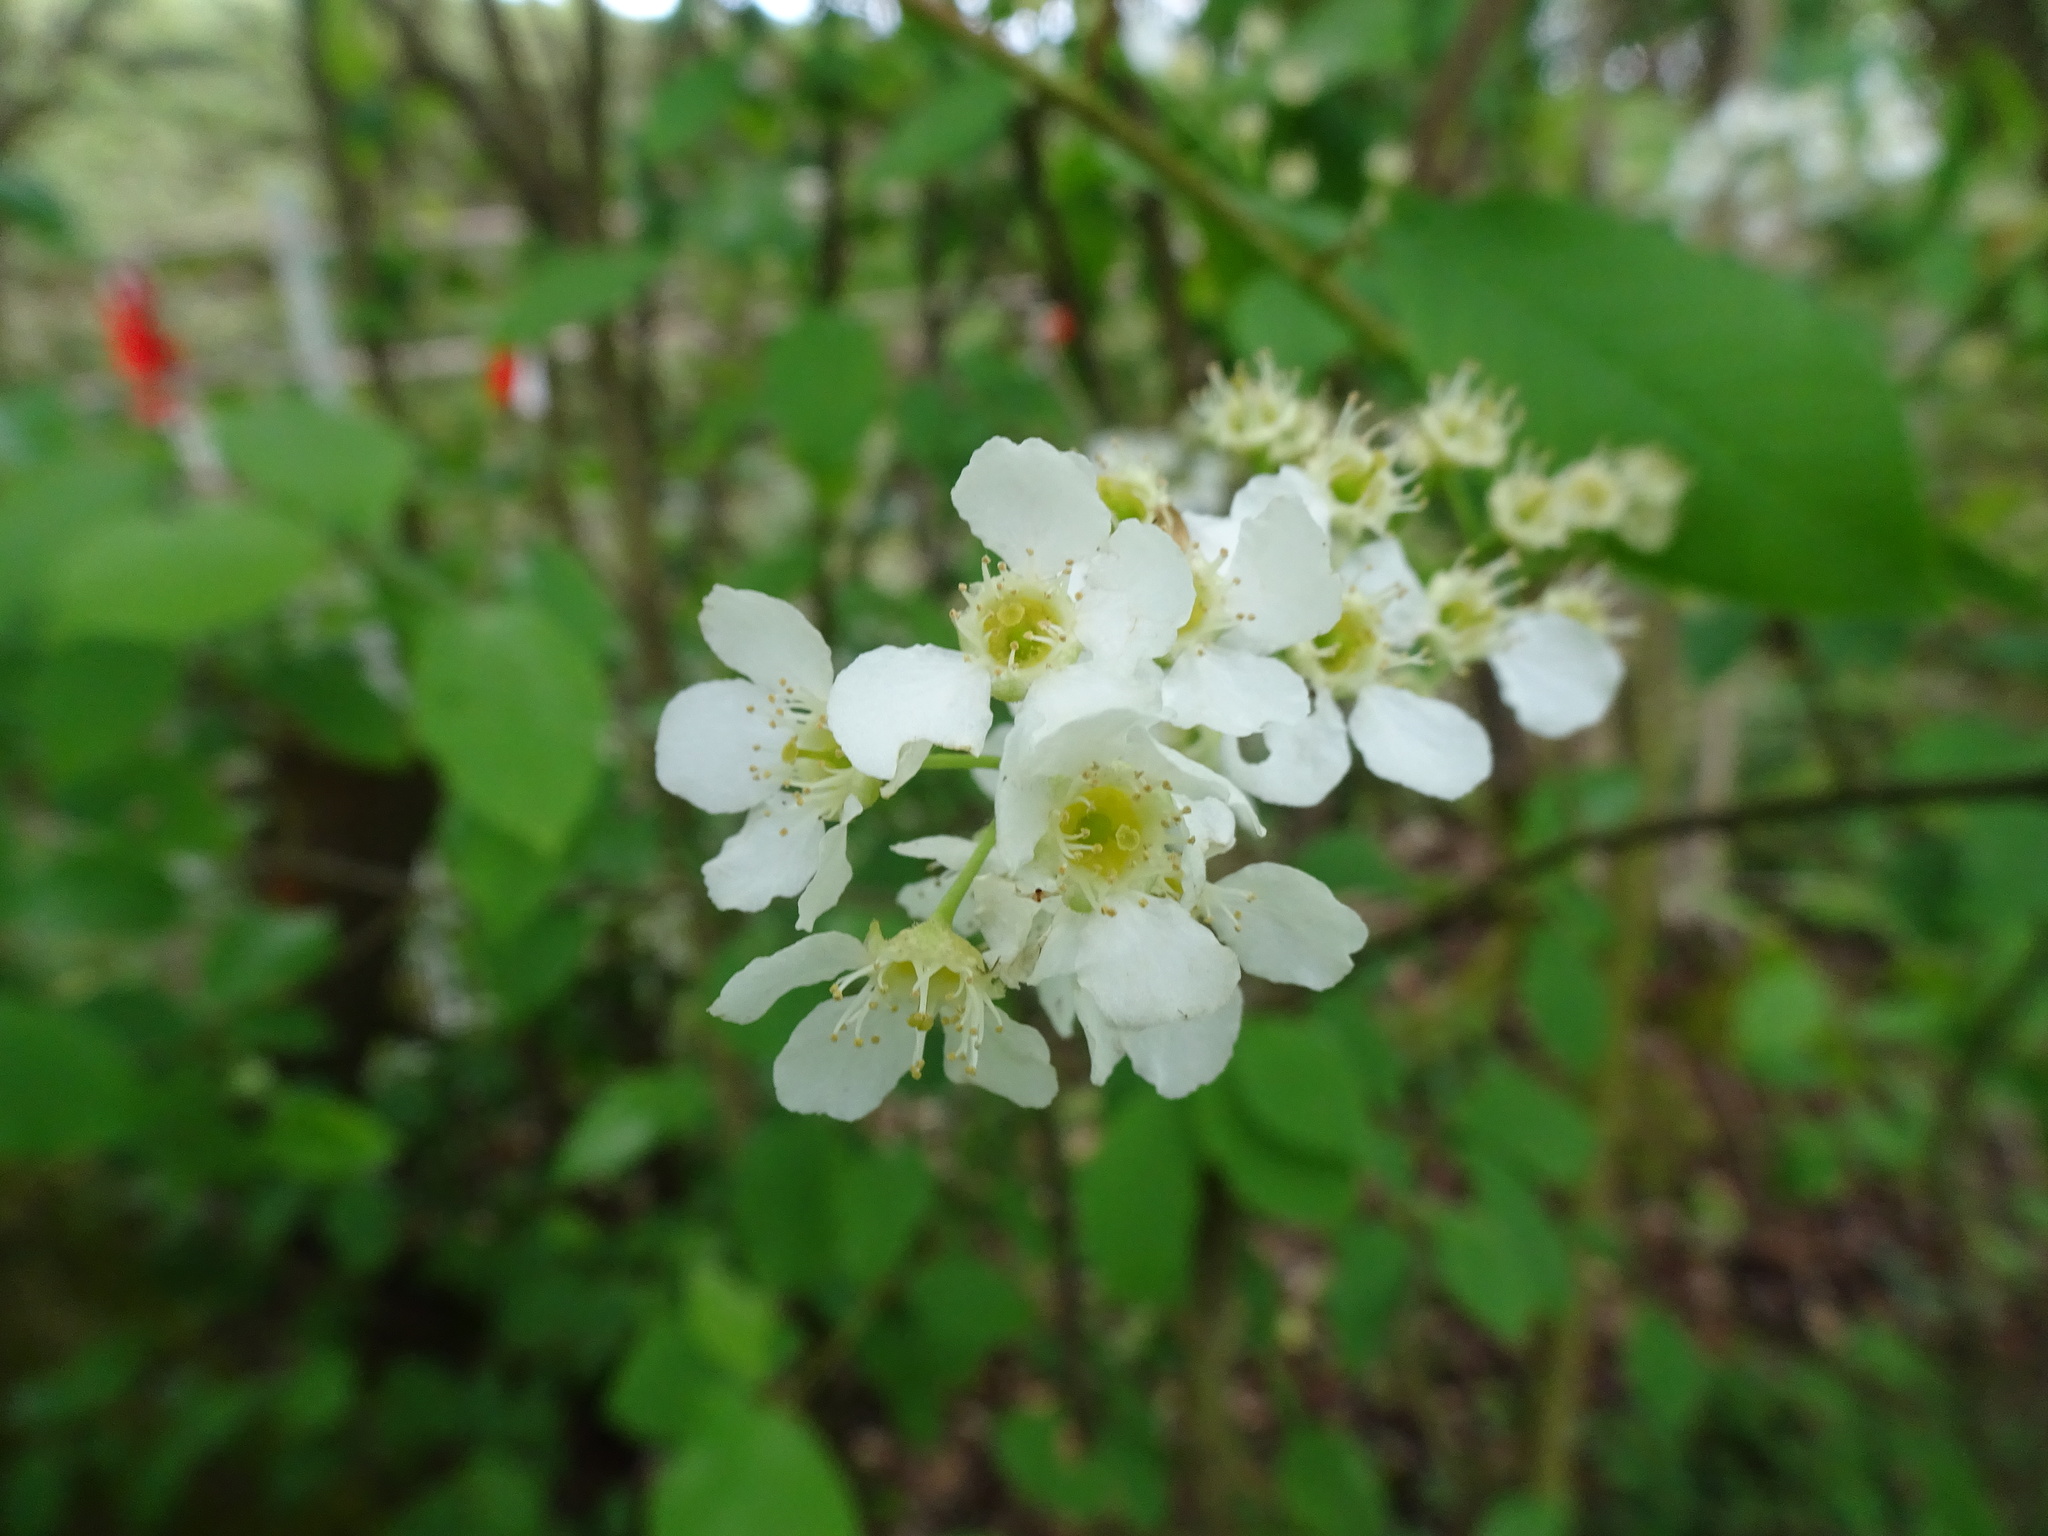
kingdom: Plantae
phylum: Tracheophyta
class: Magnoliopsida
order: Rosales
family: Rosaceae
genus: Prunus
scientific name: Prunus padus
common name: Bird cherry
